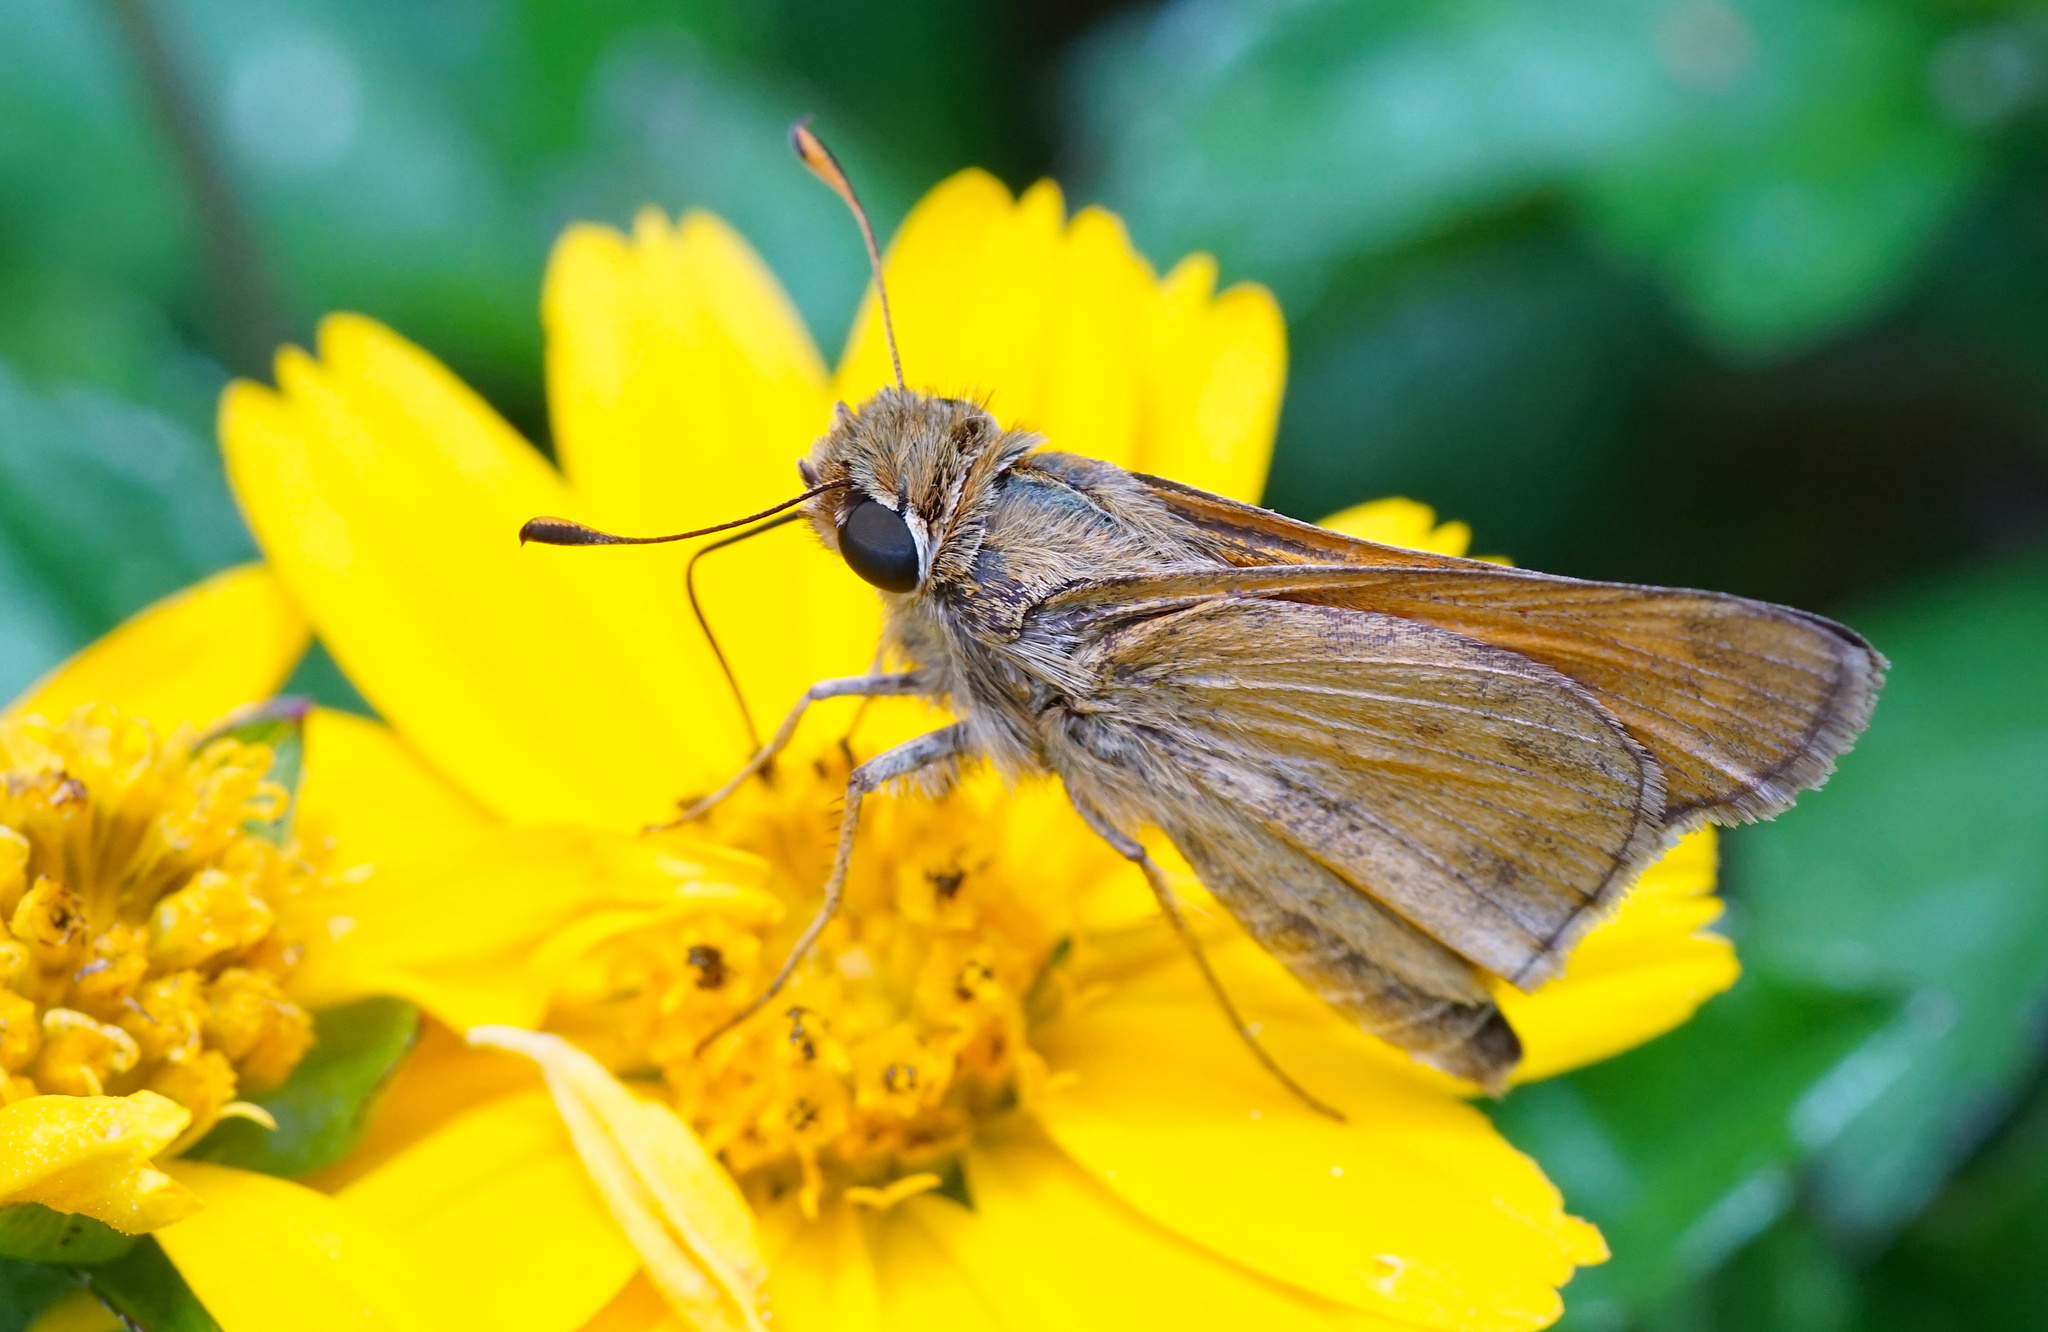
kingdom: Animalia
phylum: Arthropoda
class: Insecta
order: Lepidoptera
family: Hesperiidae
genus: Atalopedes
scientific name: Atalopedes
